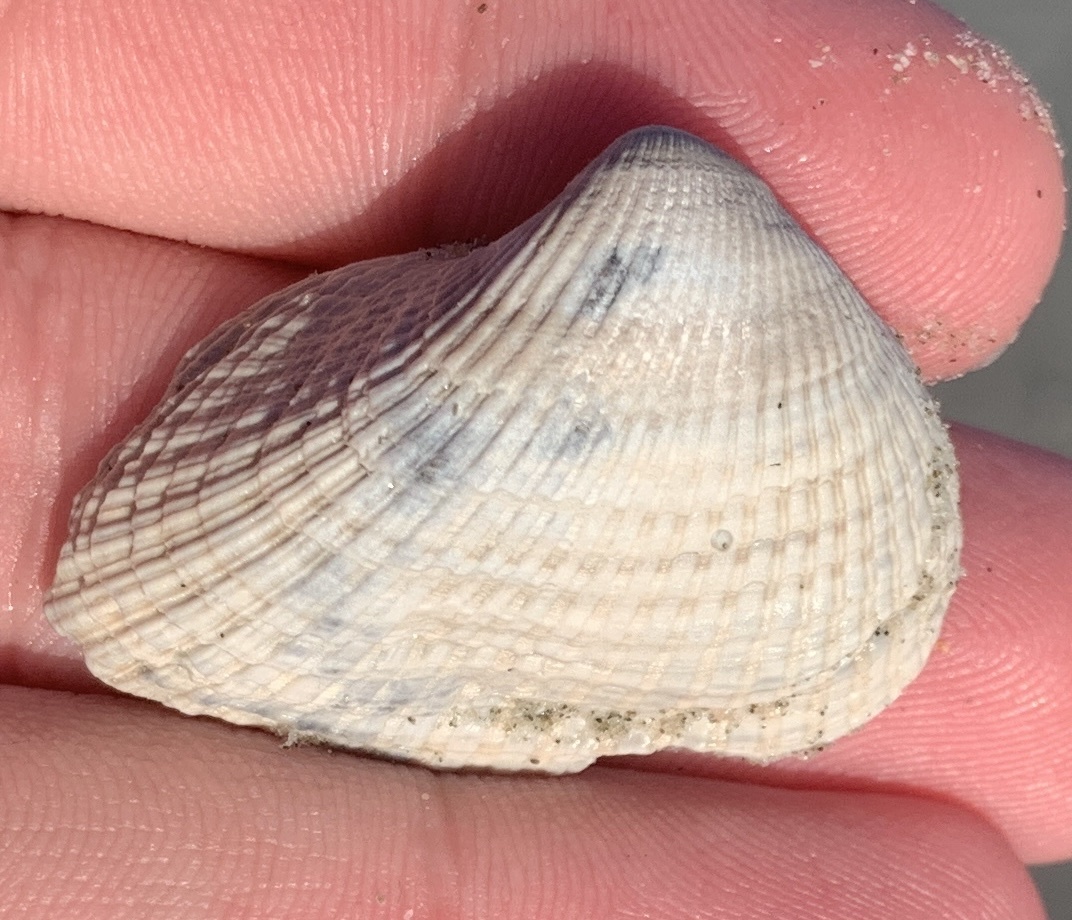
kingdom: Animalia
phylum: Mollusca
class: Bivalvia
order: Arcida
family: Noetiidae
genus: Noetia
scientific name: Noetia ponderosa
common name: Ponderous ark
